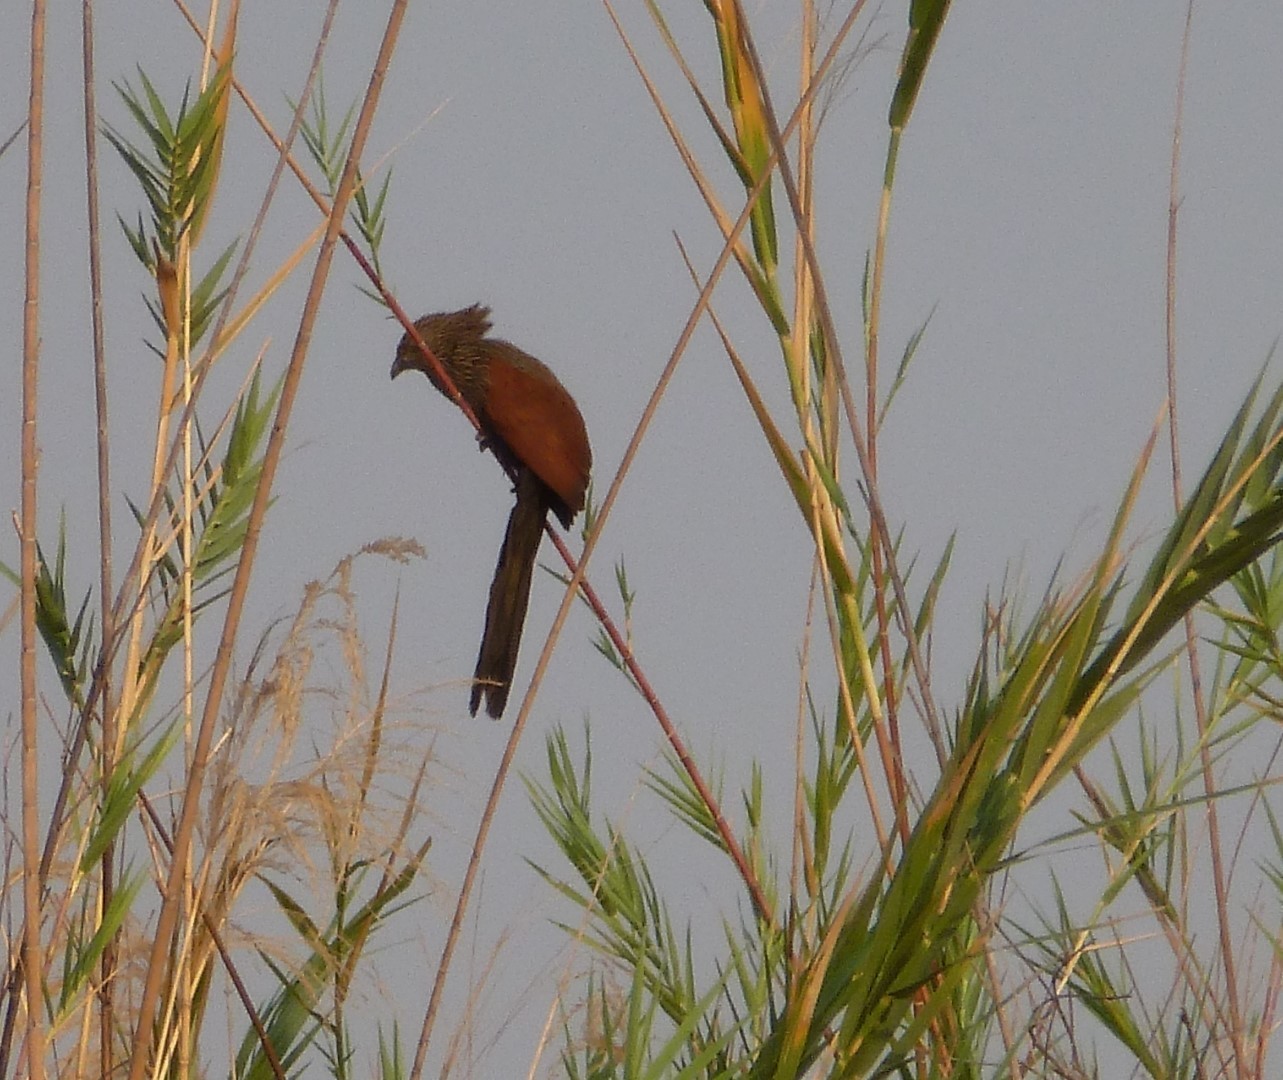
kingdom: Animalia
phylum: Chordata
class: Aves
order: Cuculiformes
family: Cuculidae
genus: Centropus
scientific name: Centropus toulou
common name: Malagasy coucal
